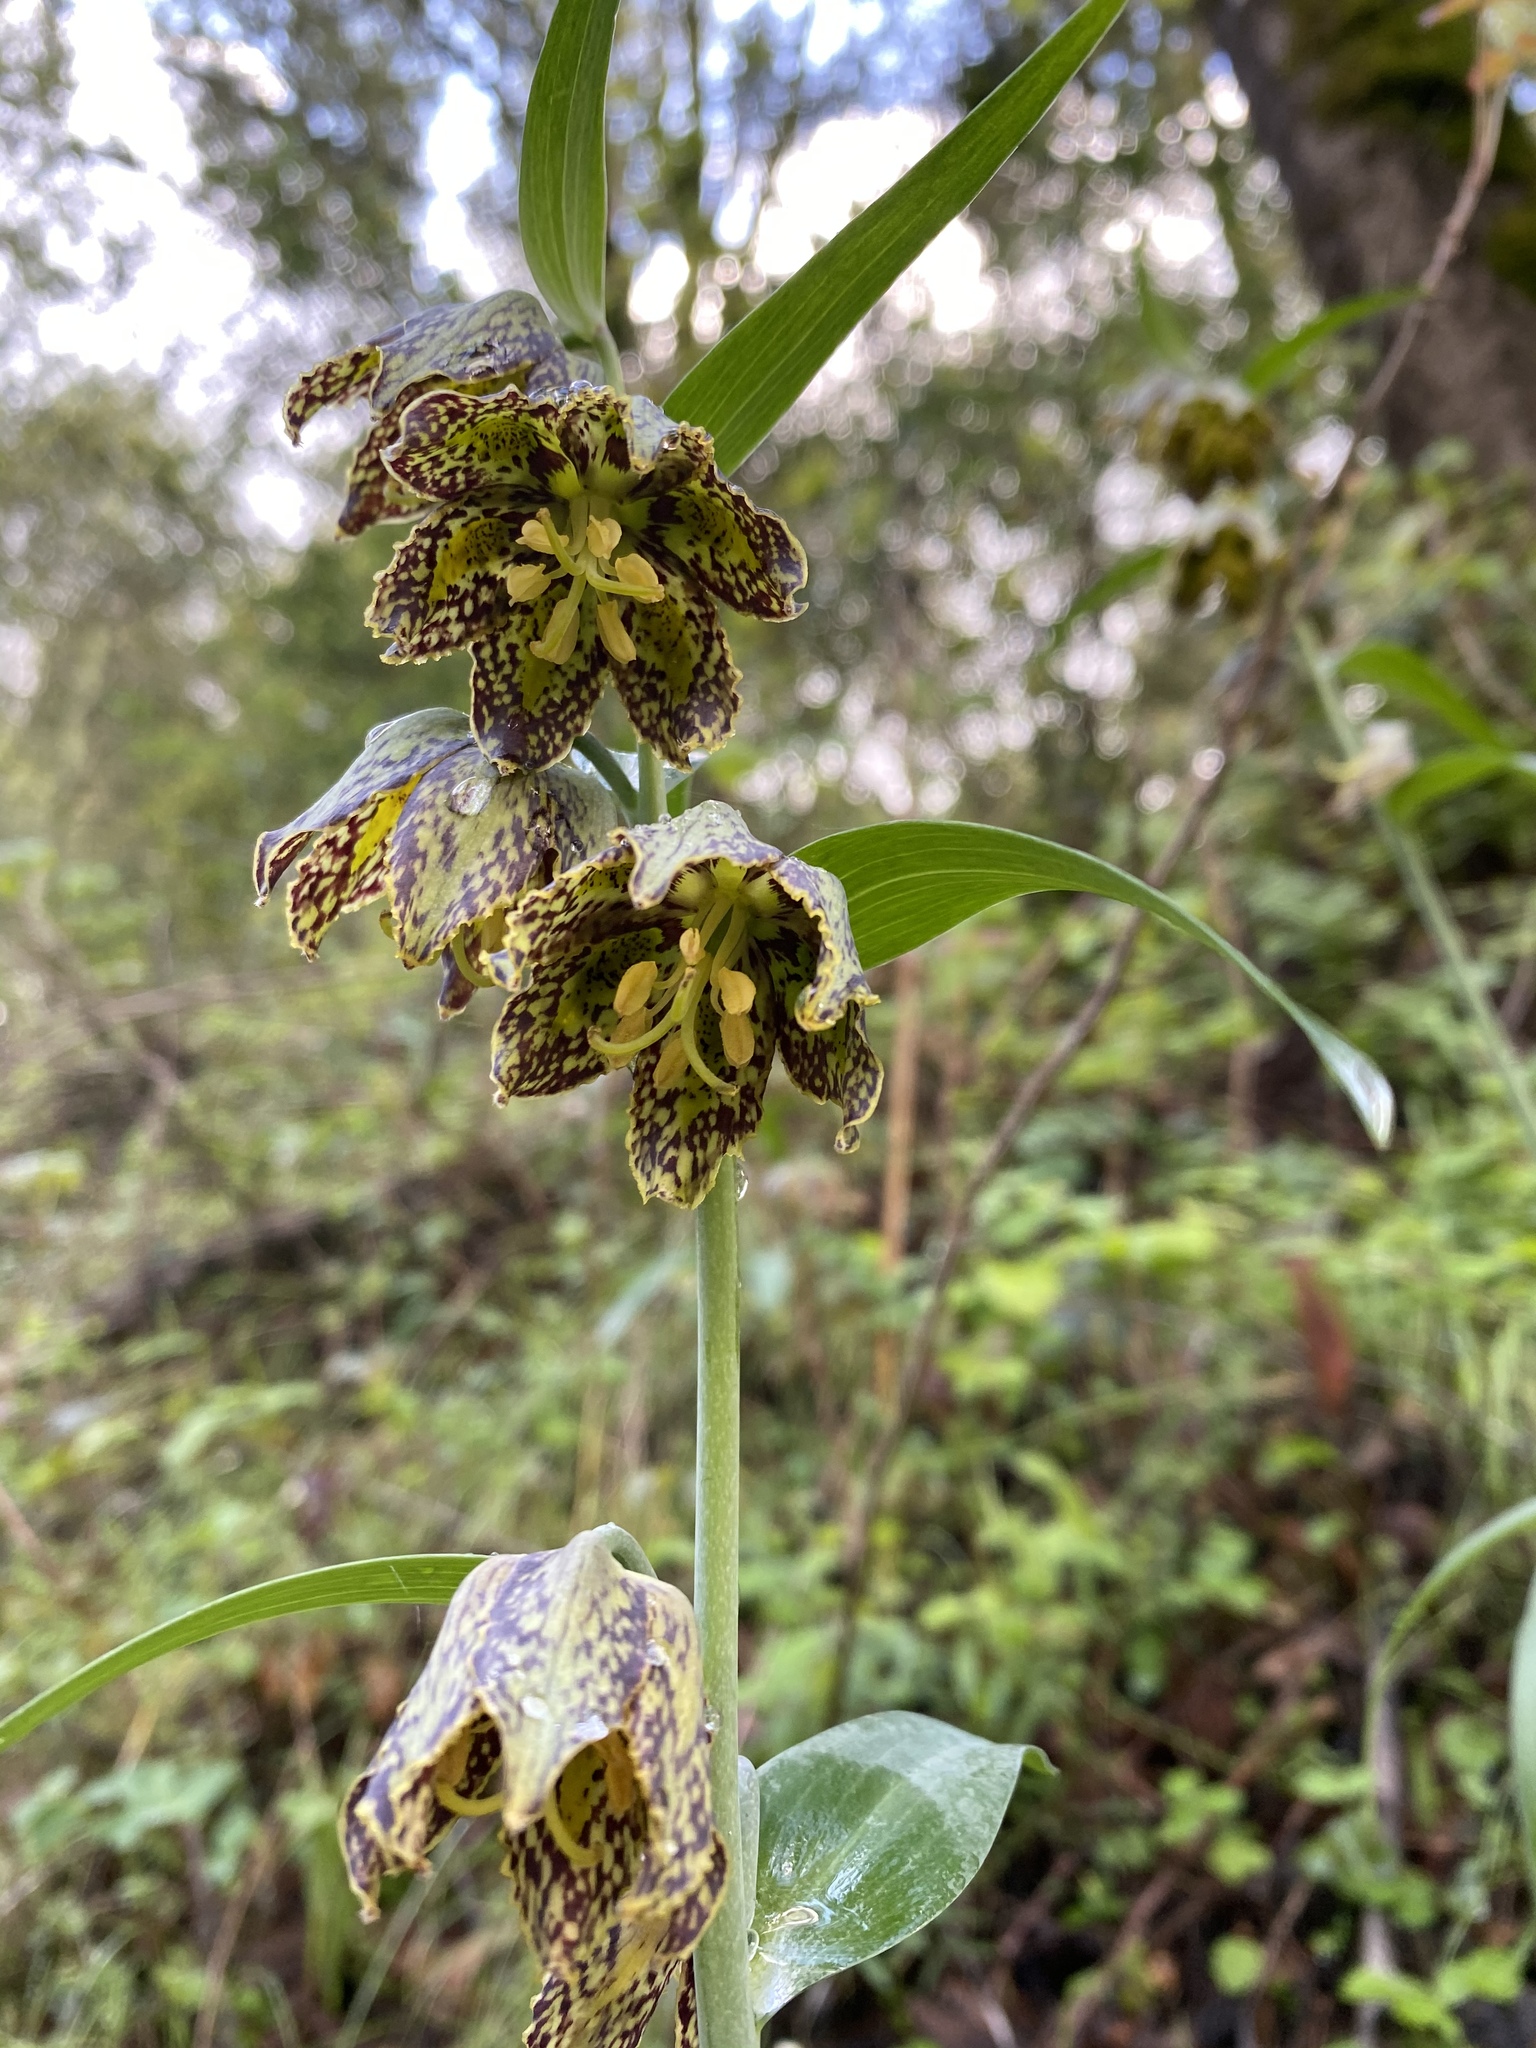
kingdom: Plantae
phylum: Tracheophyta
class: Liliopsida
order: Liliales
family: Liliaceae
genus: Fritillaria
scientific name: Fritillaria affinis
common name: Ojai fritillary
